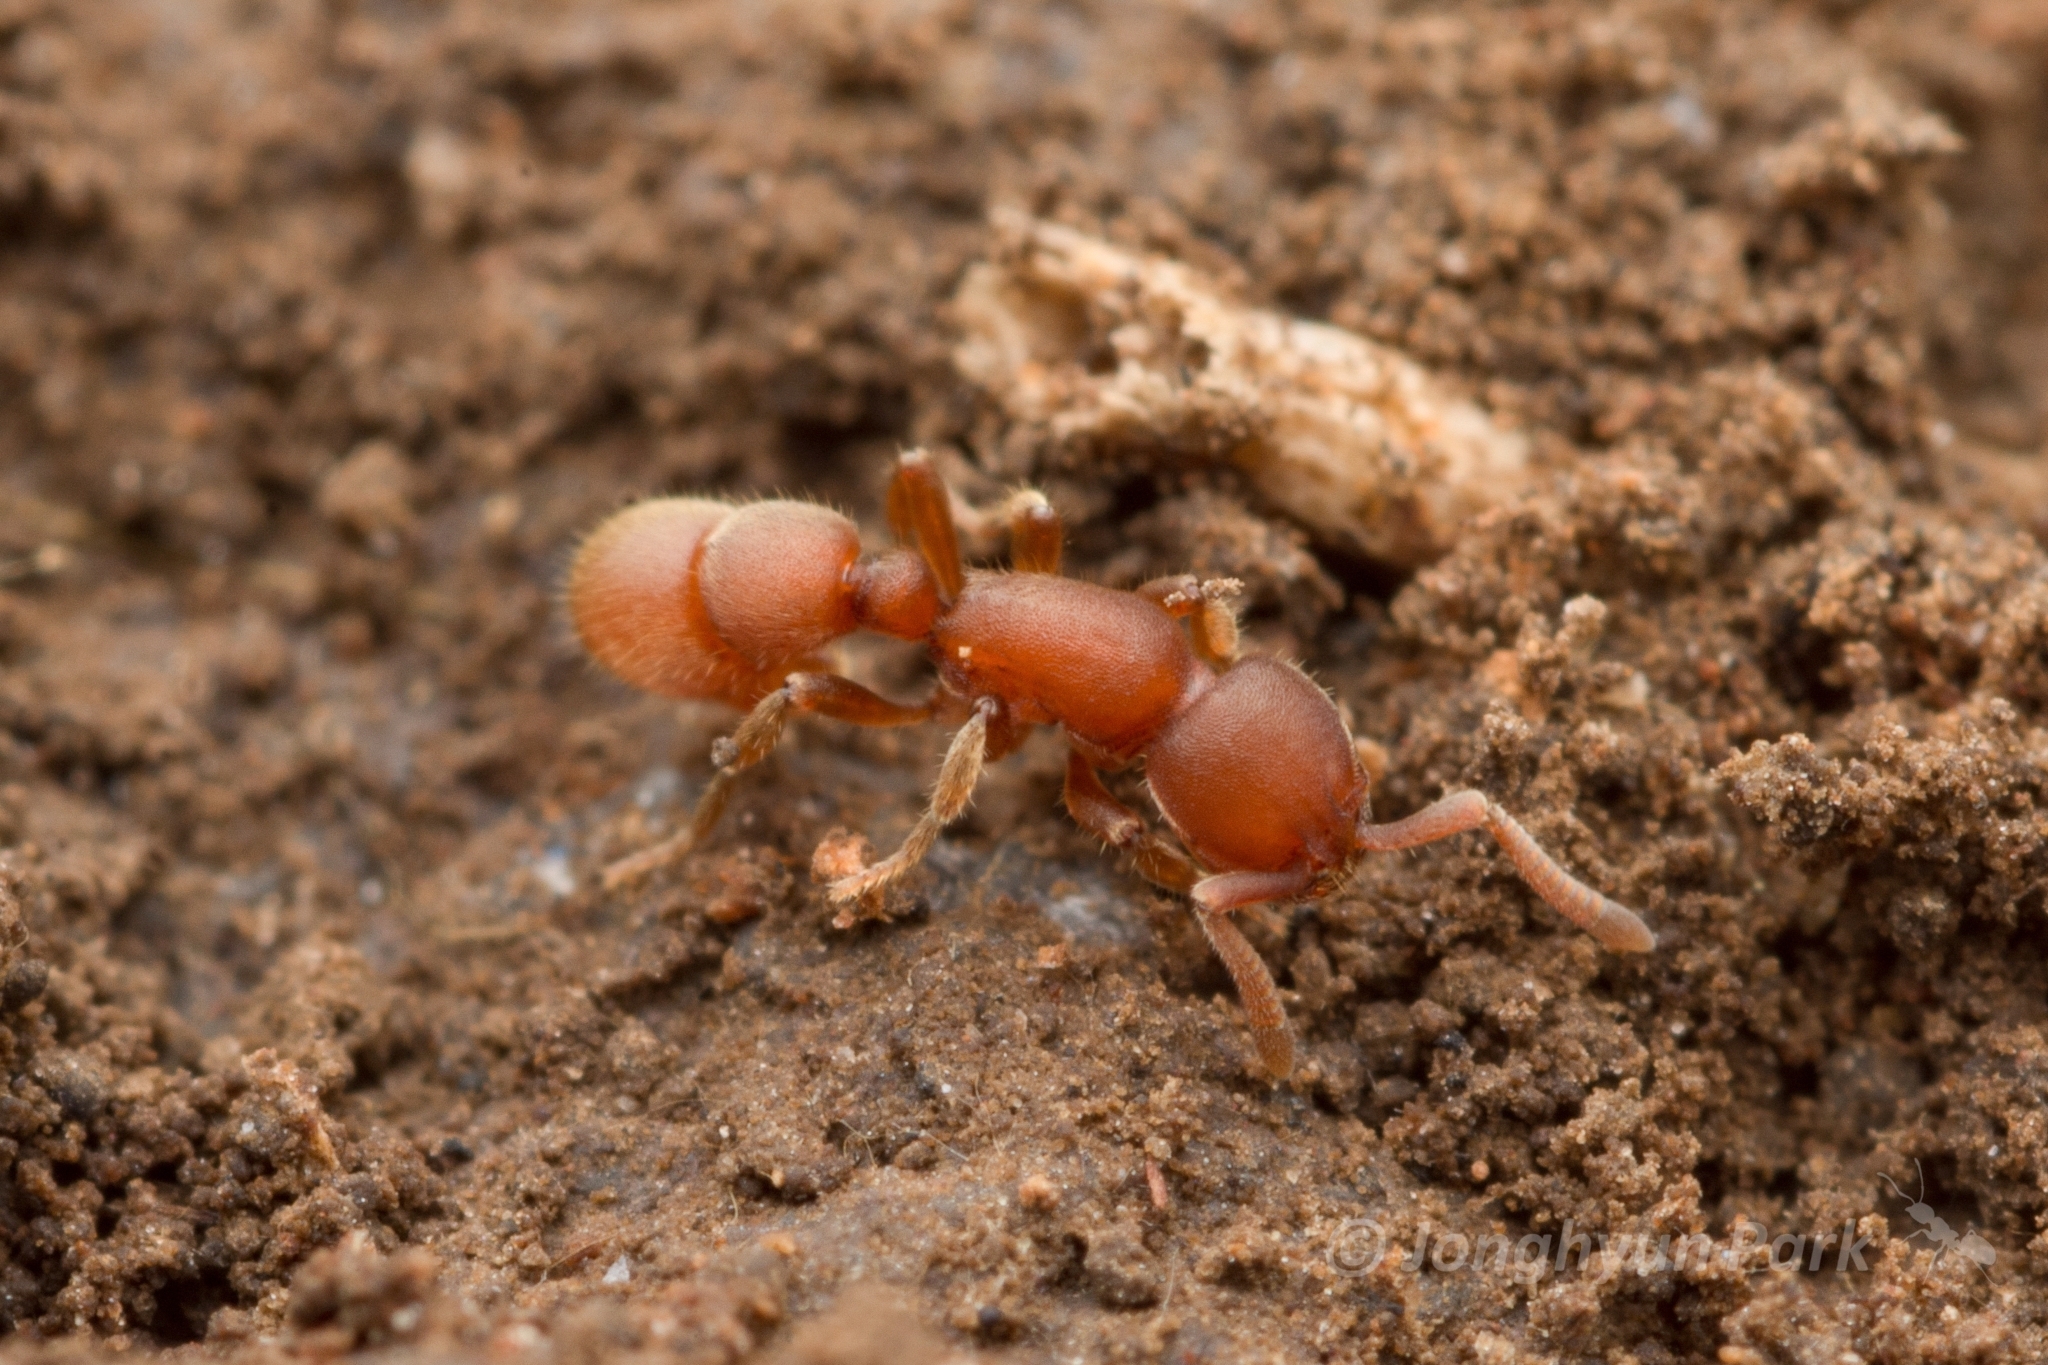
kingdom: Animalia
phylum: Arthropoda
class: Insecta
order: Hymenoptera
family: Formicidae
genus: Proceratium
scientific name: Proceratium itoi
